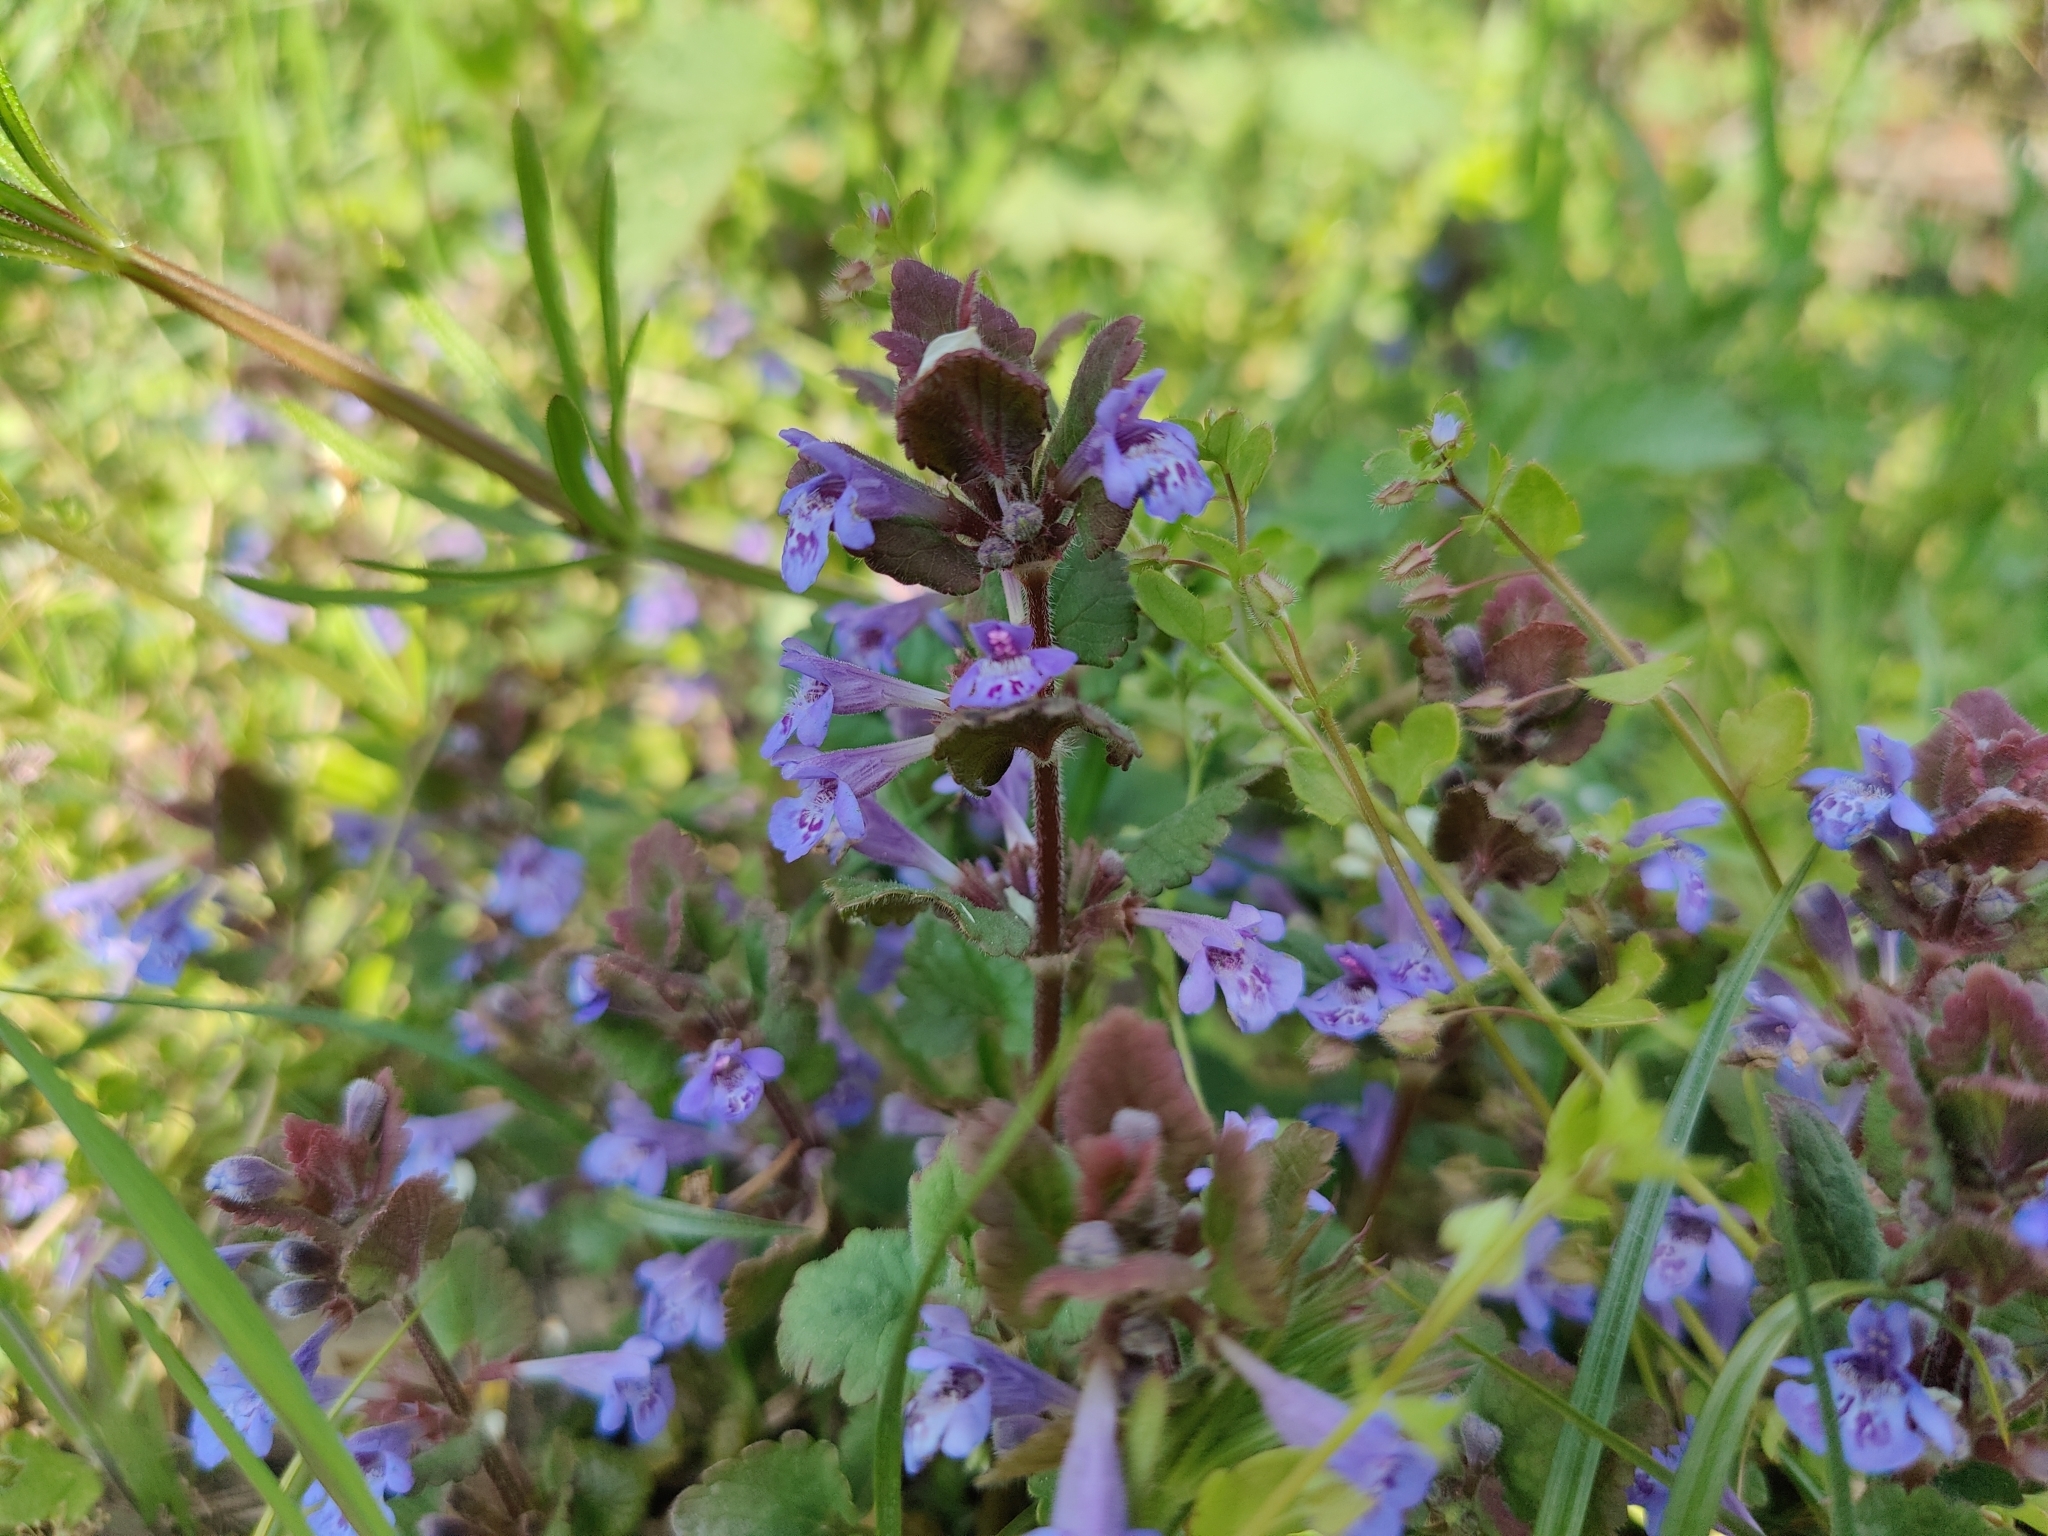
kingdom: Plantae
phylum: Tracheophyta
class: Magnoliopsida
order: Lamiales
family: Lamiaceae
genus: Glechoma
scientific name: Glechoma hederacea
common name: Ground ivy
